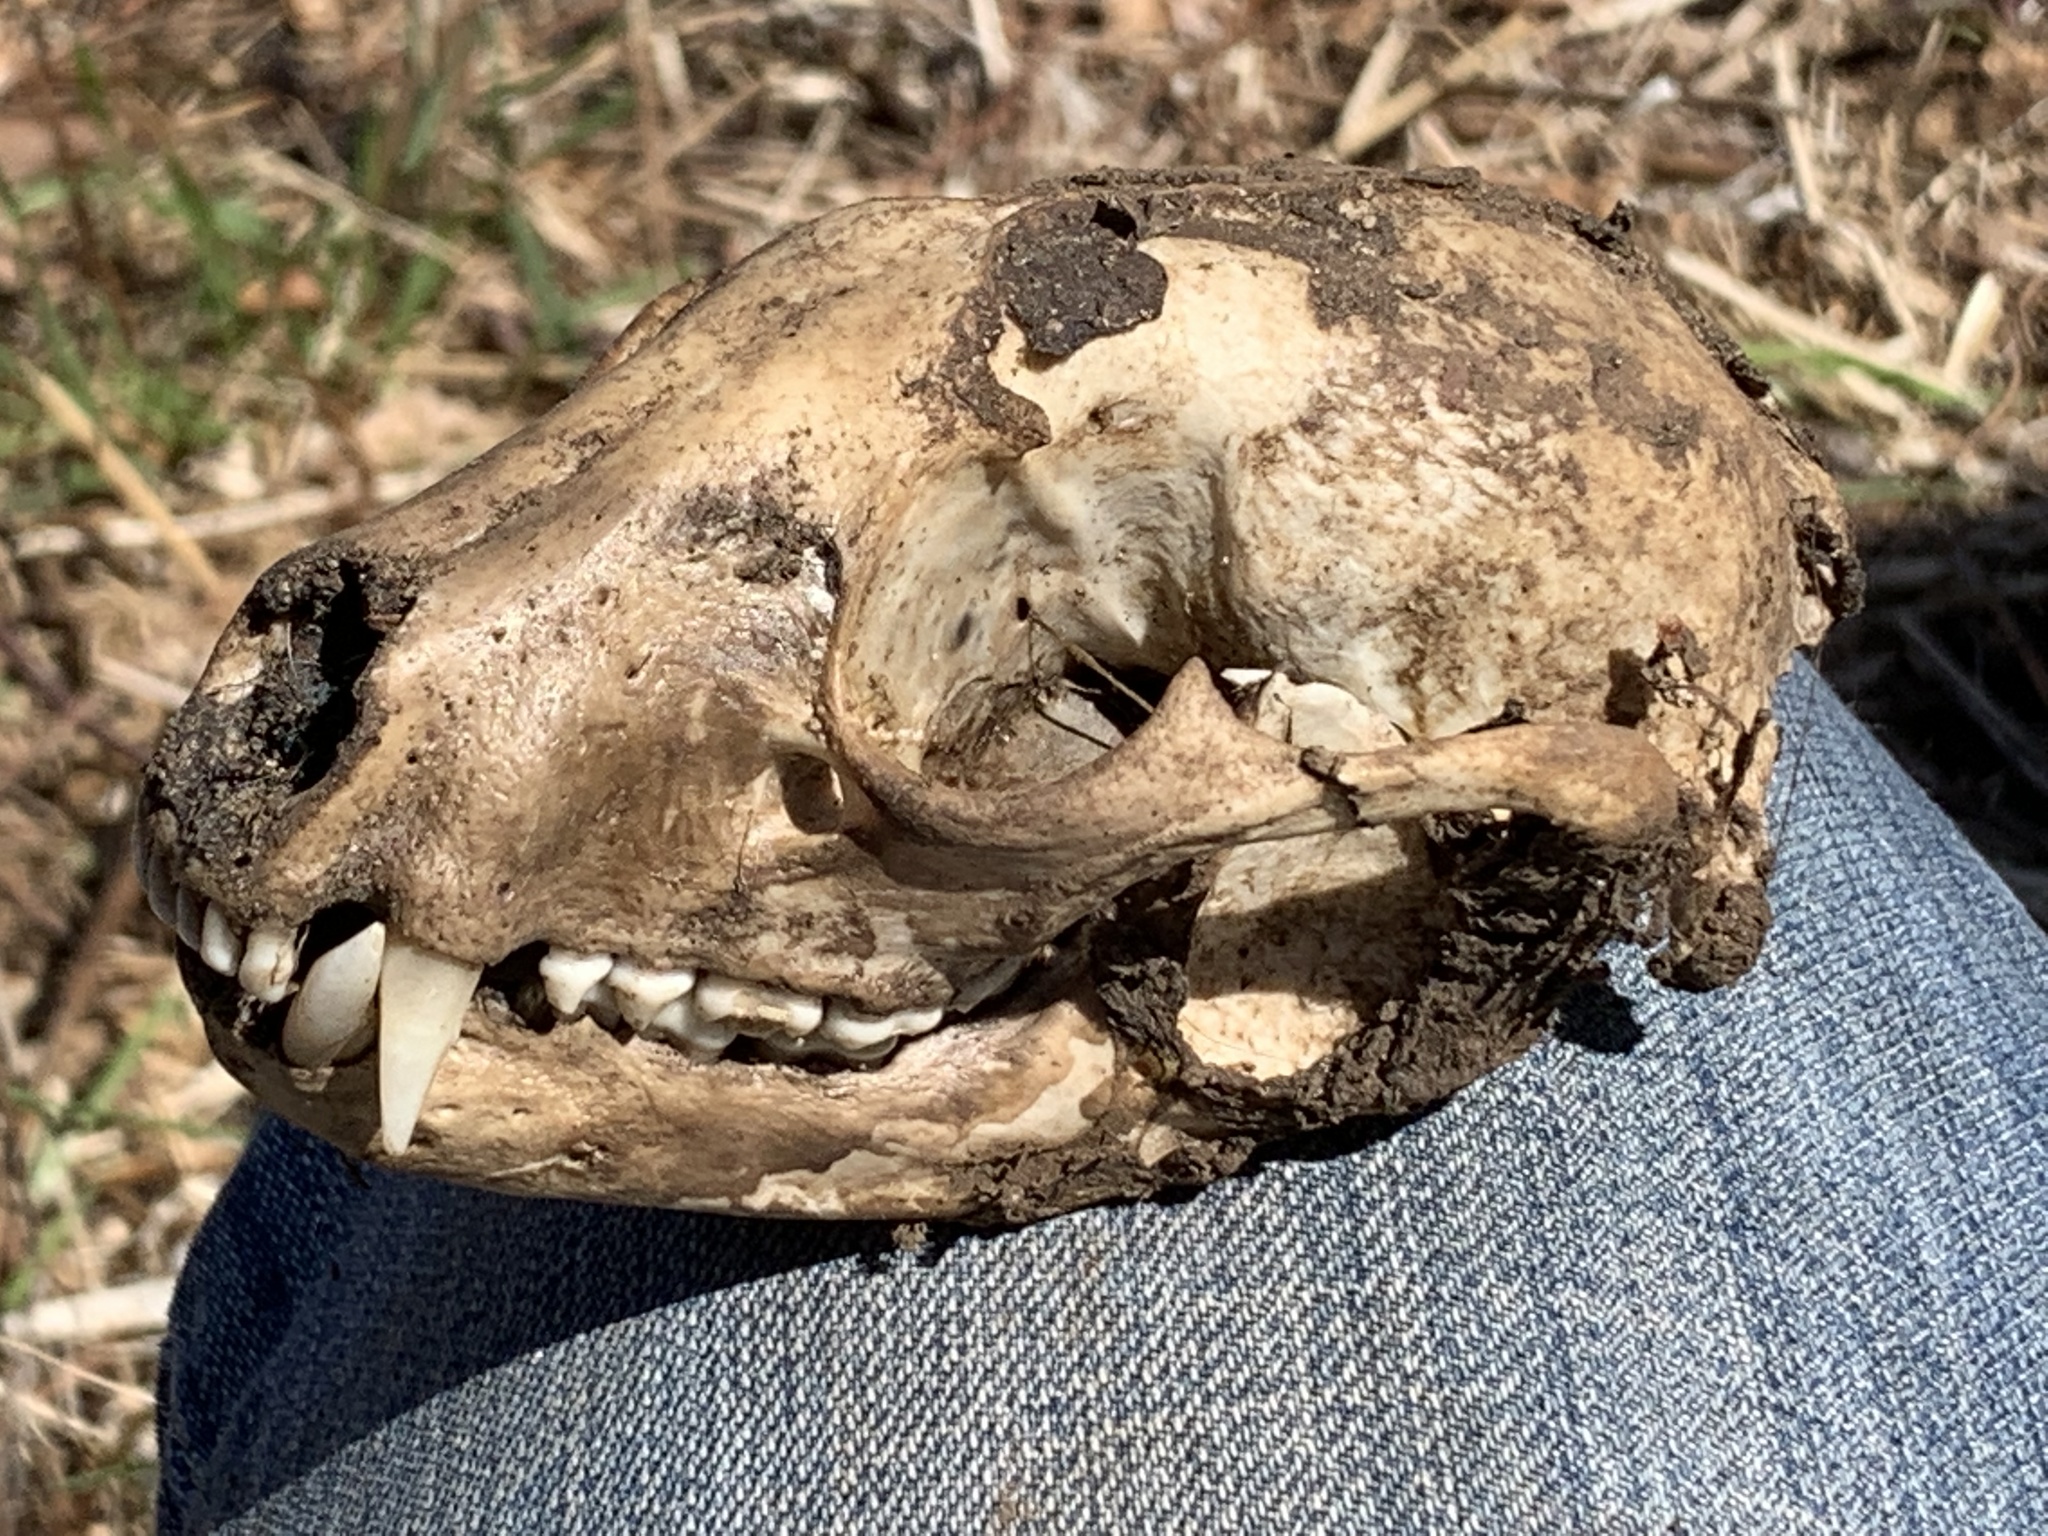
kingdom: Animalia
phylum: Chordata
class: Mammalia
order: Carnivora
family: Procyonidae
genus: Procyon
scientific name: Procyon lotor
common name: Raccoon
